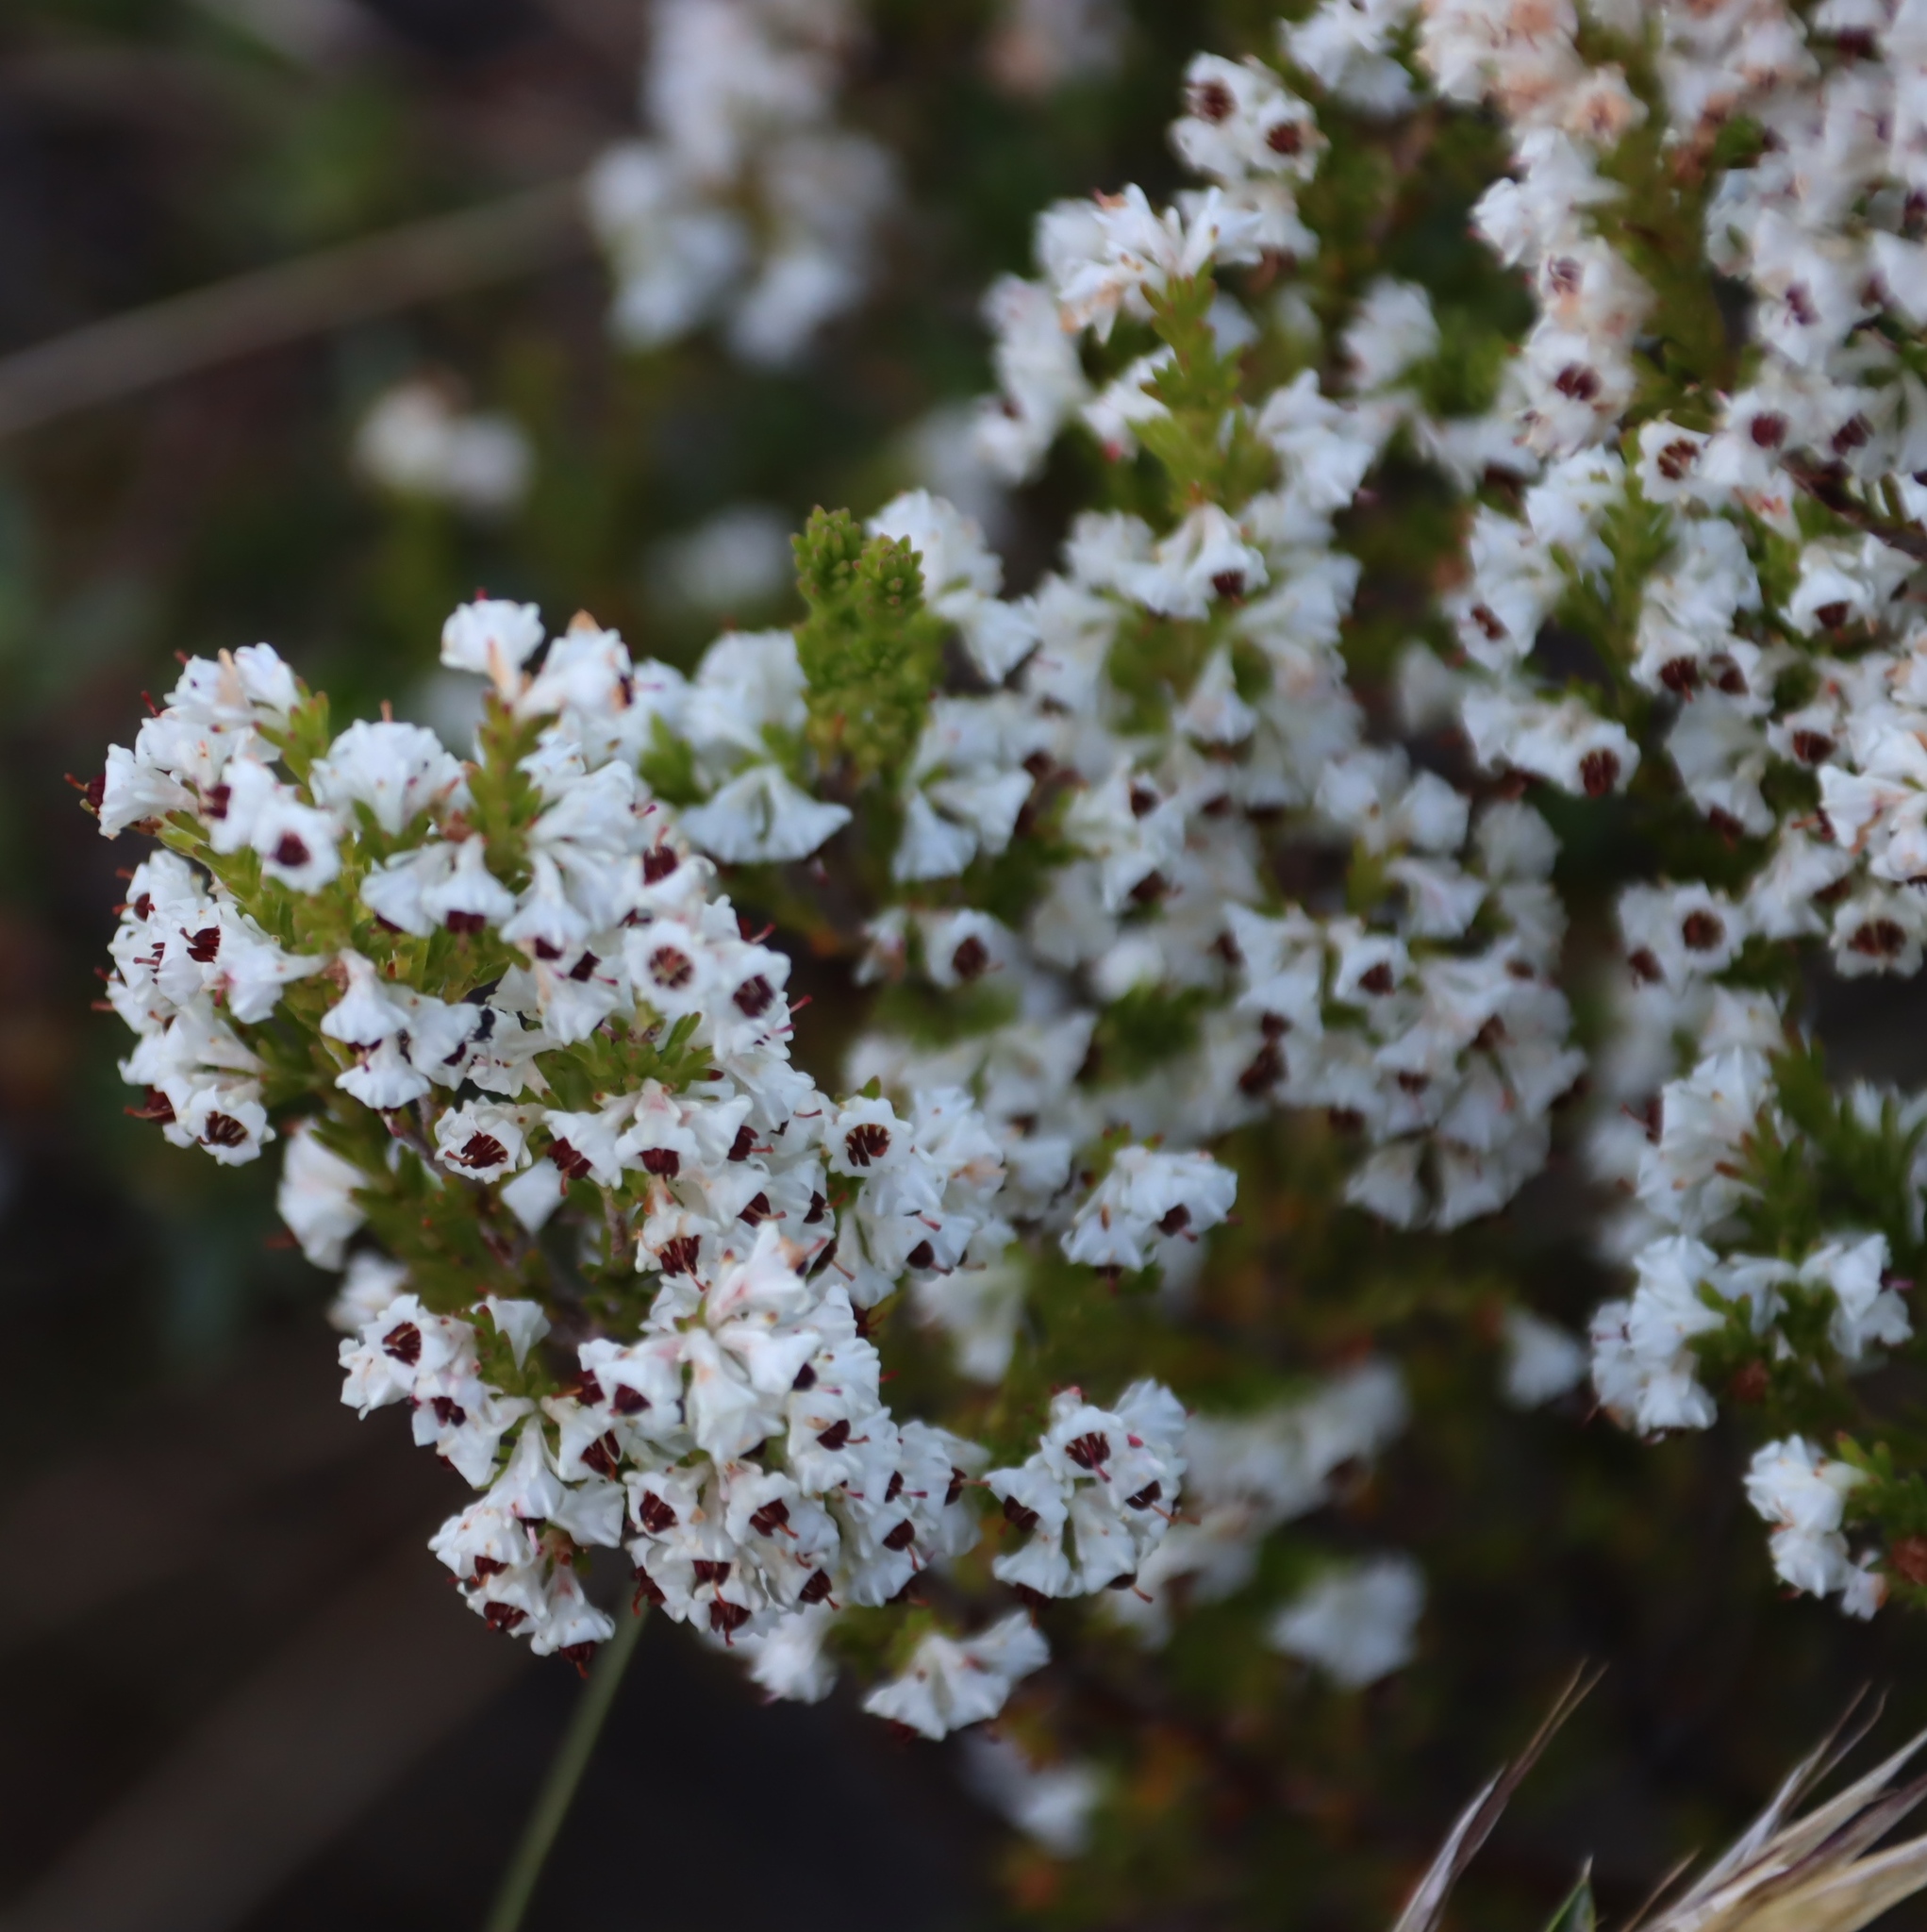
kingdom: Plantae
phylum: Tracheophyta
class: Magnoliopsida
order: Ericales
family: Ericaceae
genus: Erica
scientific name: Erica calycina
